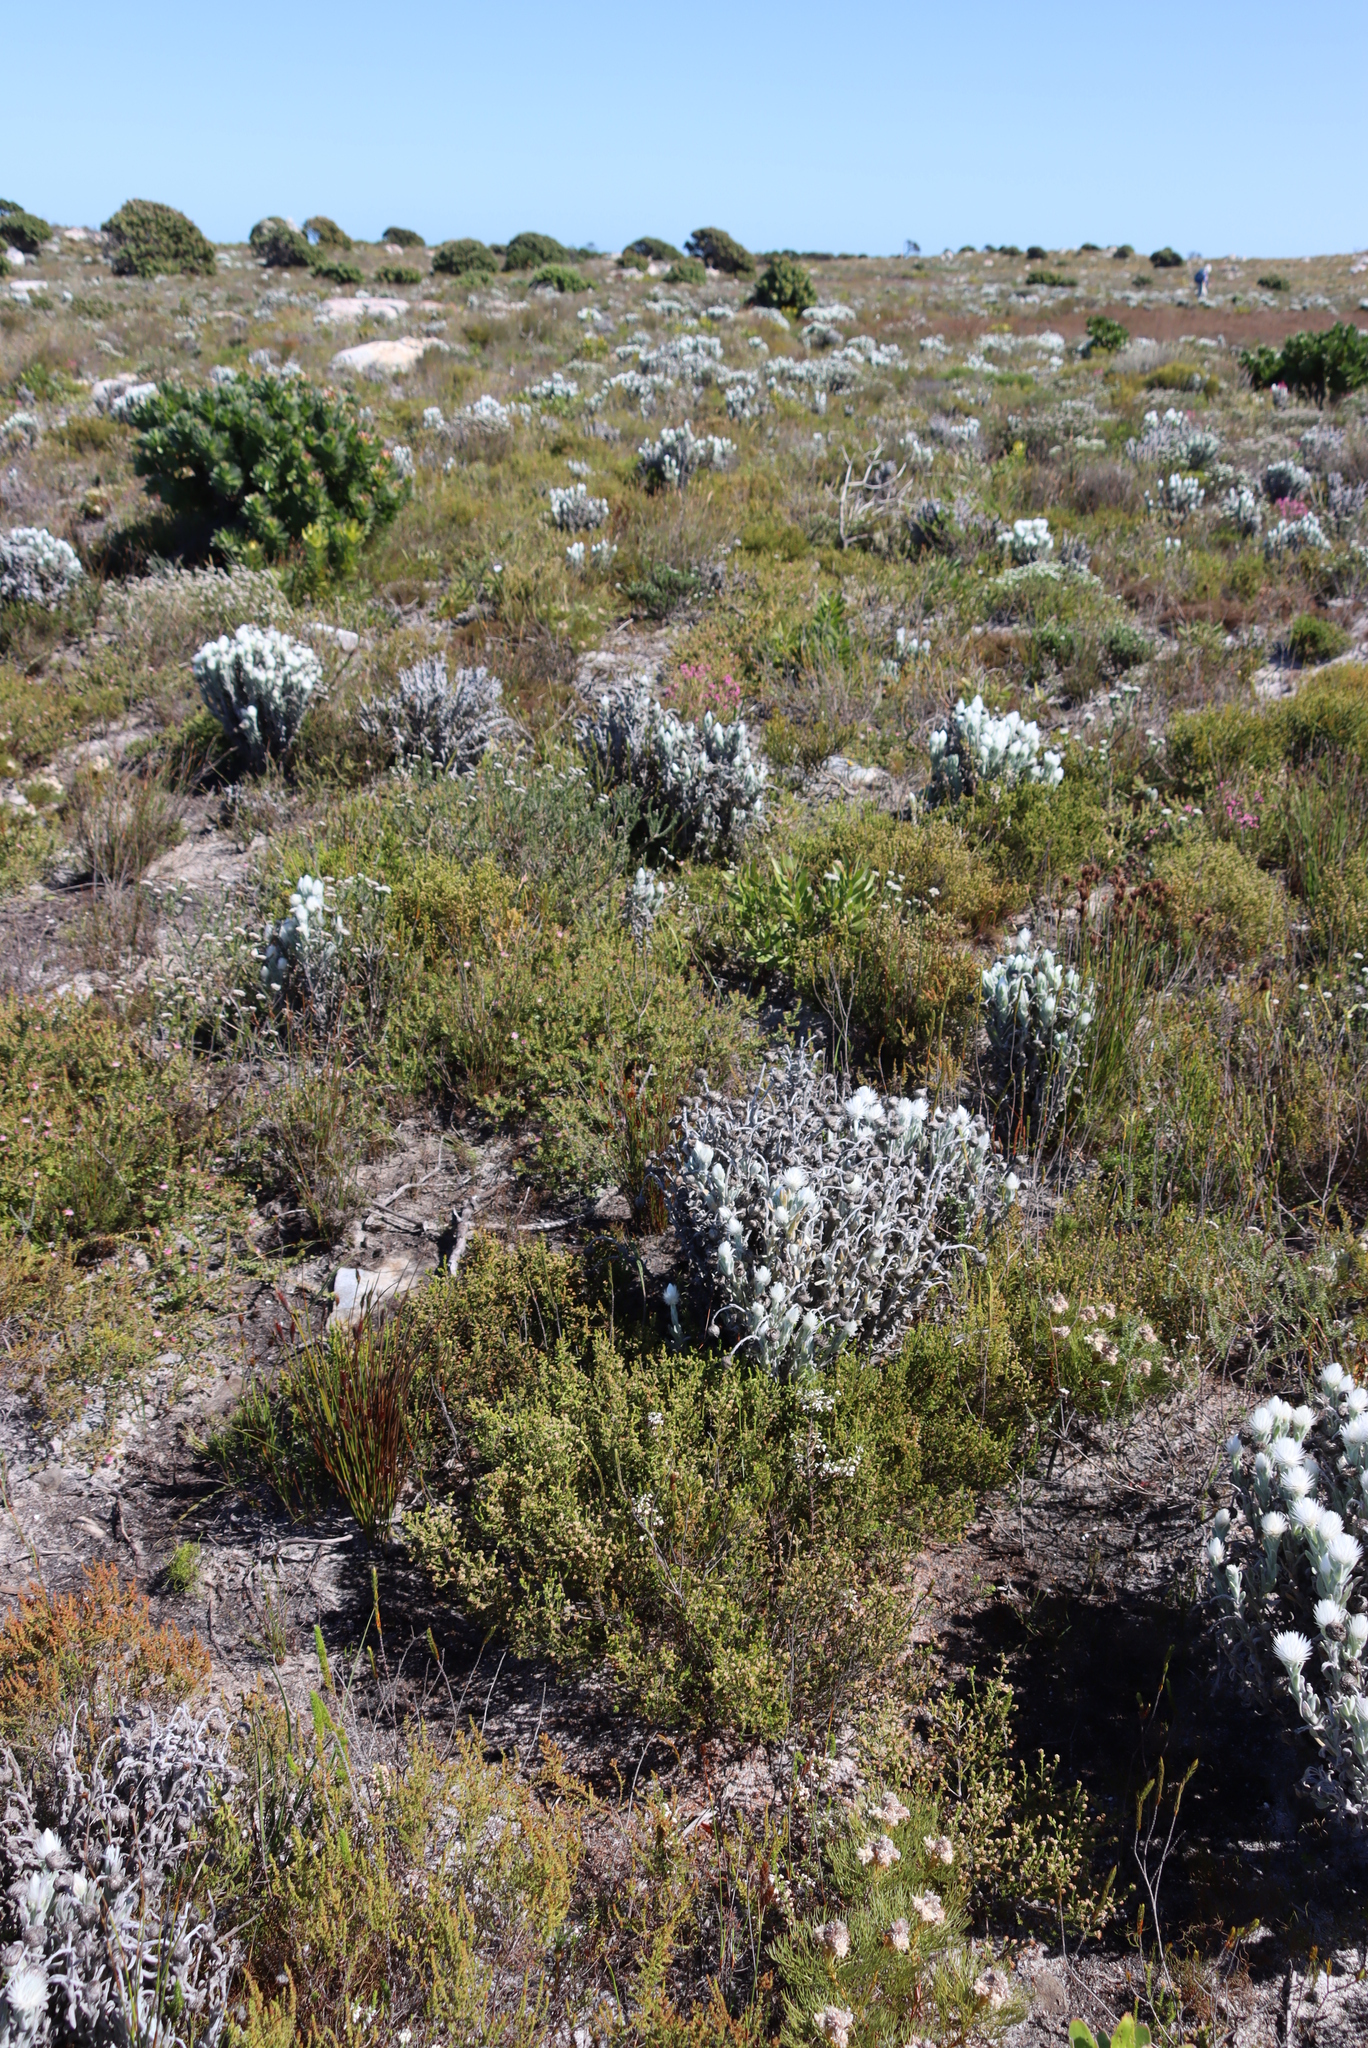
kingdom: Plantae
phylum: Tracheophyta
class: Magnoliopsida
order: Asterales
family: Asteraceae
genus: Syncarpha
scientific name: Syncarpha vestita
